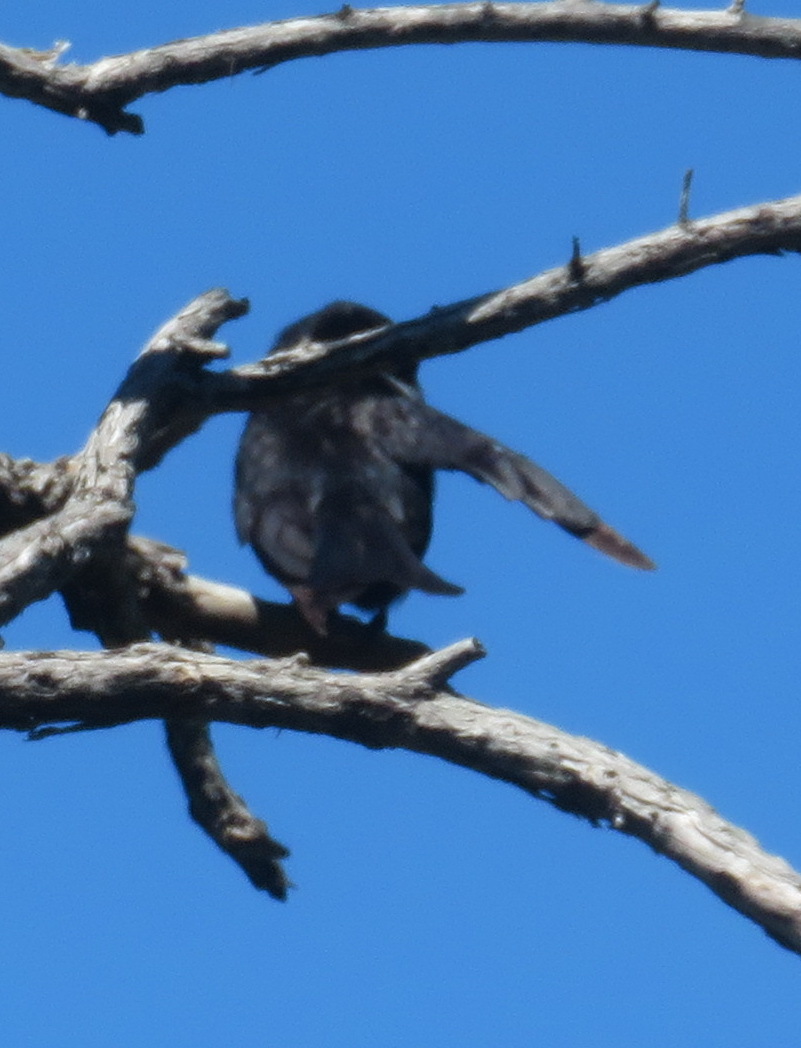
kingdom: Animalia
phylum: Chordata
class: Aves
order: Passeriformes
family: Dicruridae
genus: Dicrurus
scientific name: Dicrurus adsimilis
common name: Fork-tailed drongo
